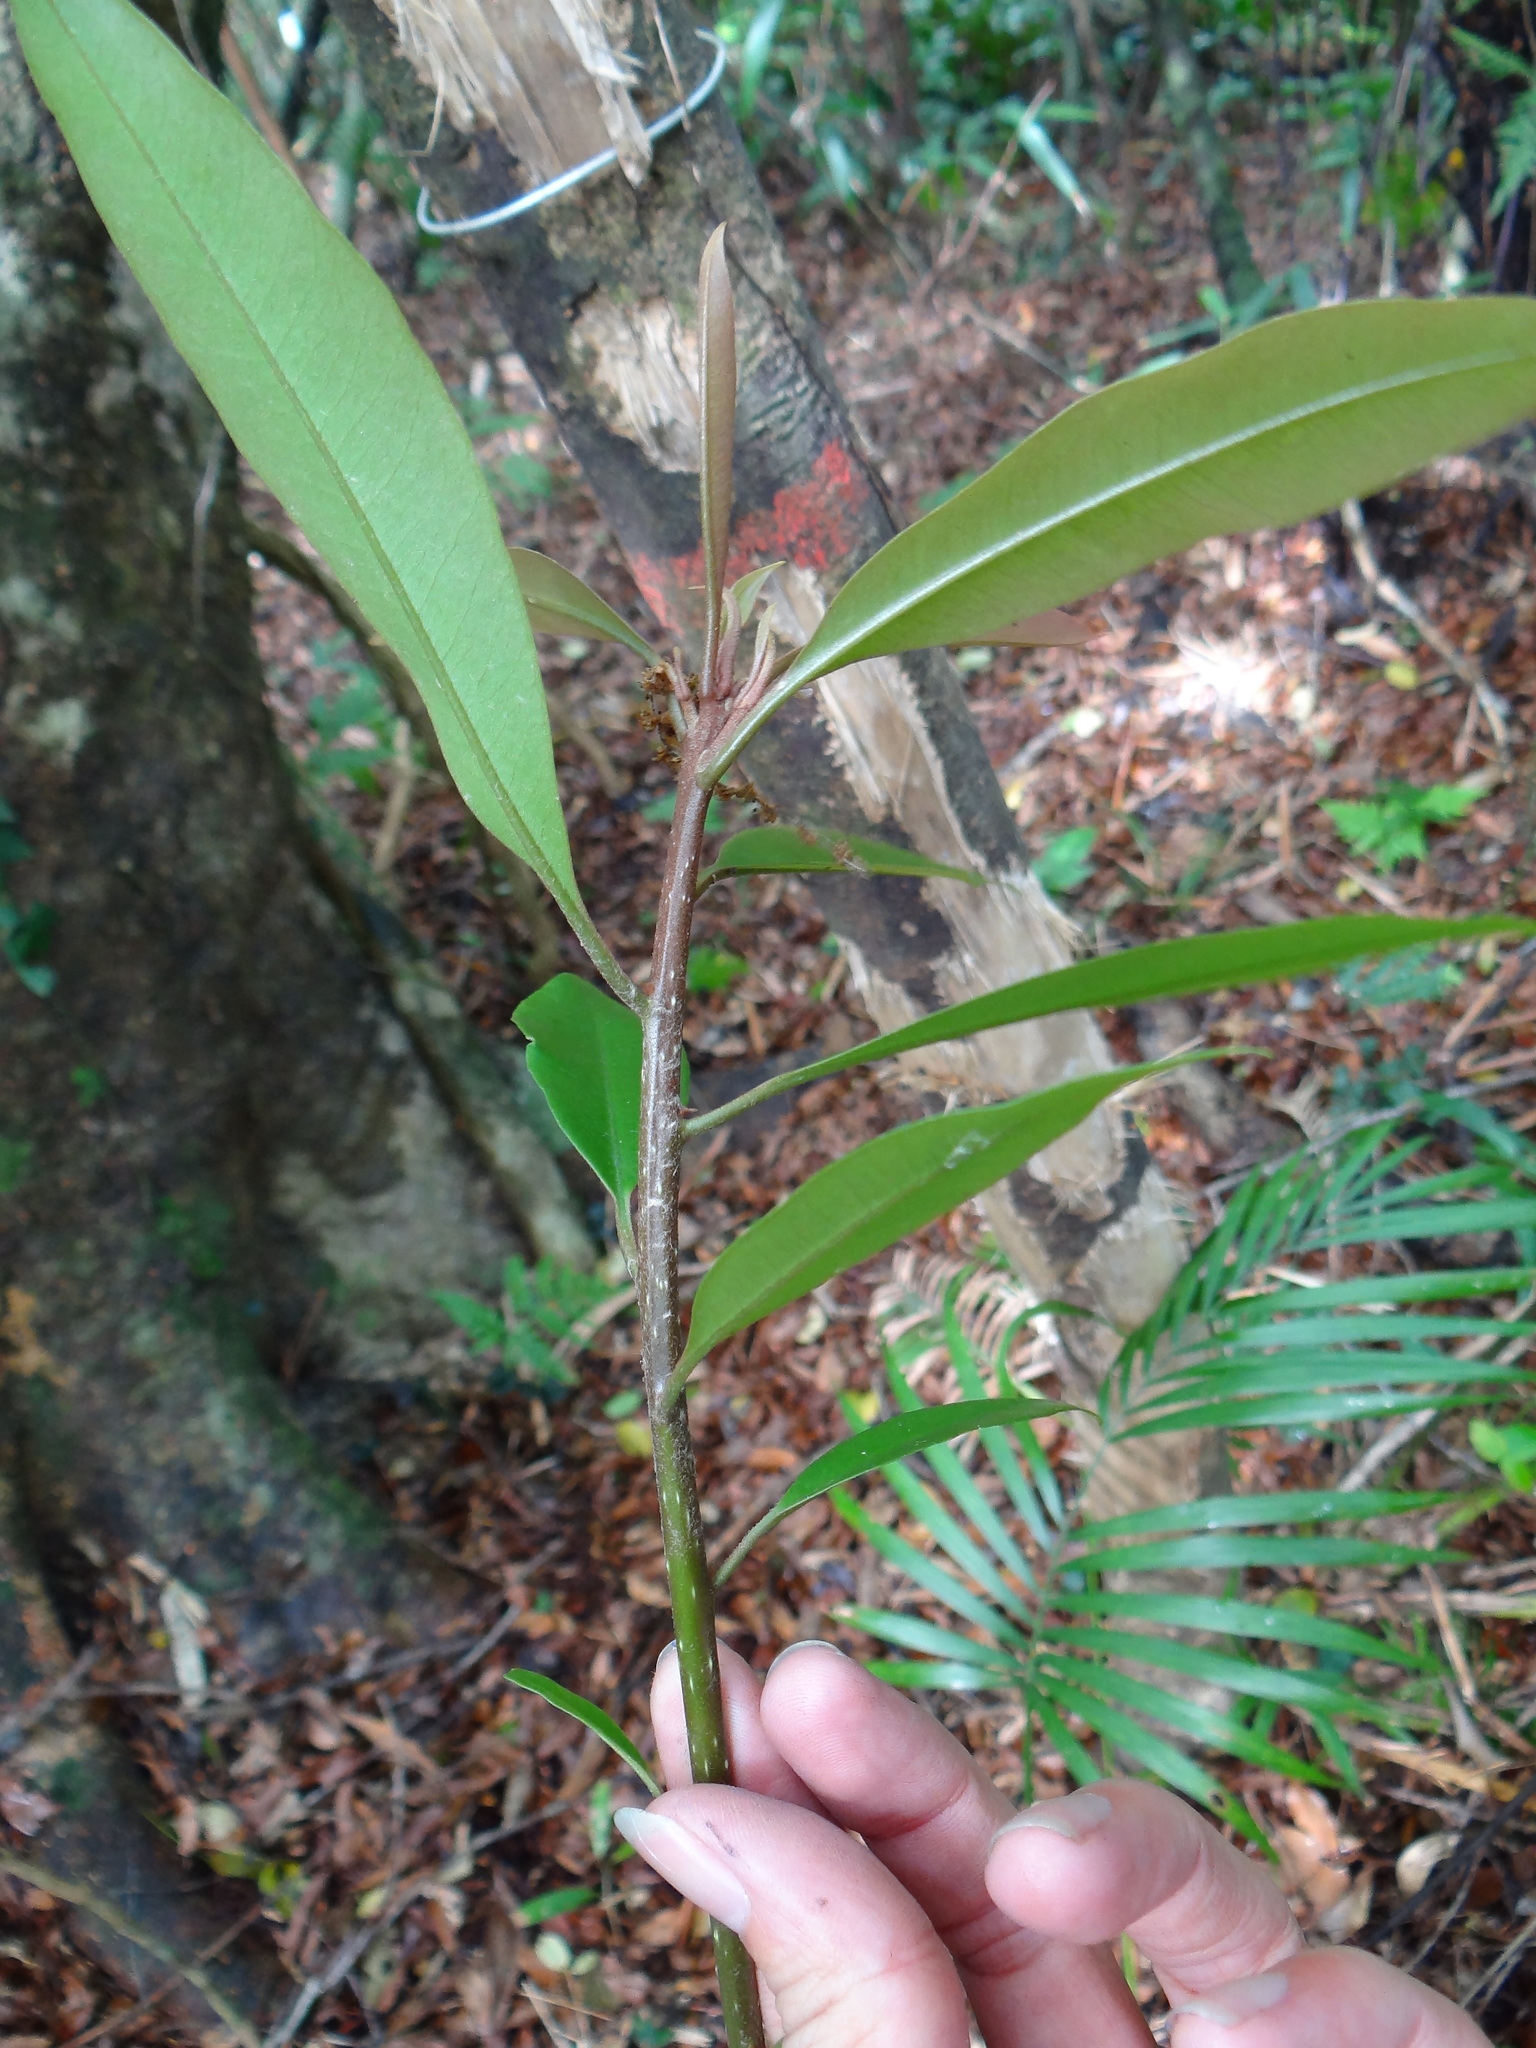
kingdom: Plantae
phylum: Tracheophyta
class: Magnoliopsida
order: Ericales
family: Primulaceae
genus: Ardisia
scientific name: Ardisia quinquegona
